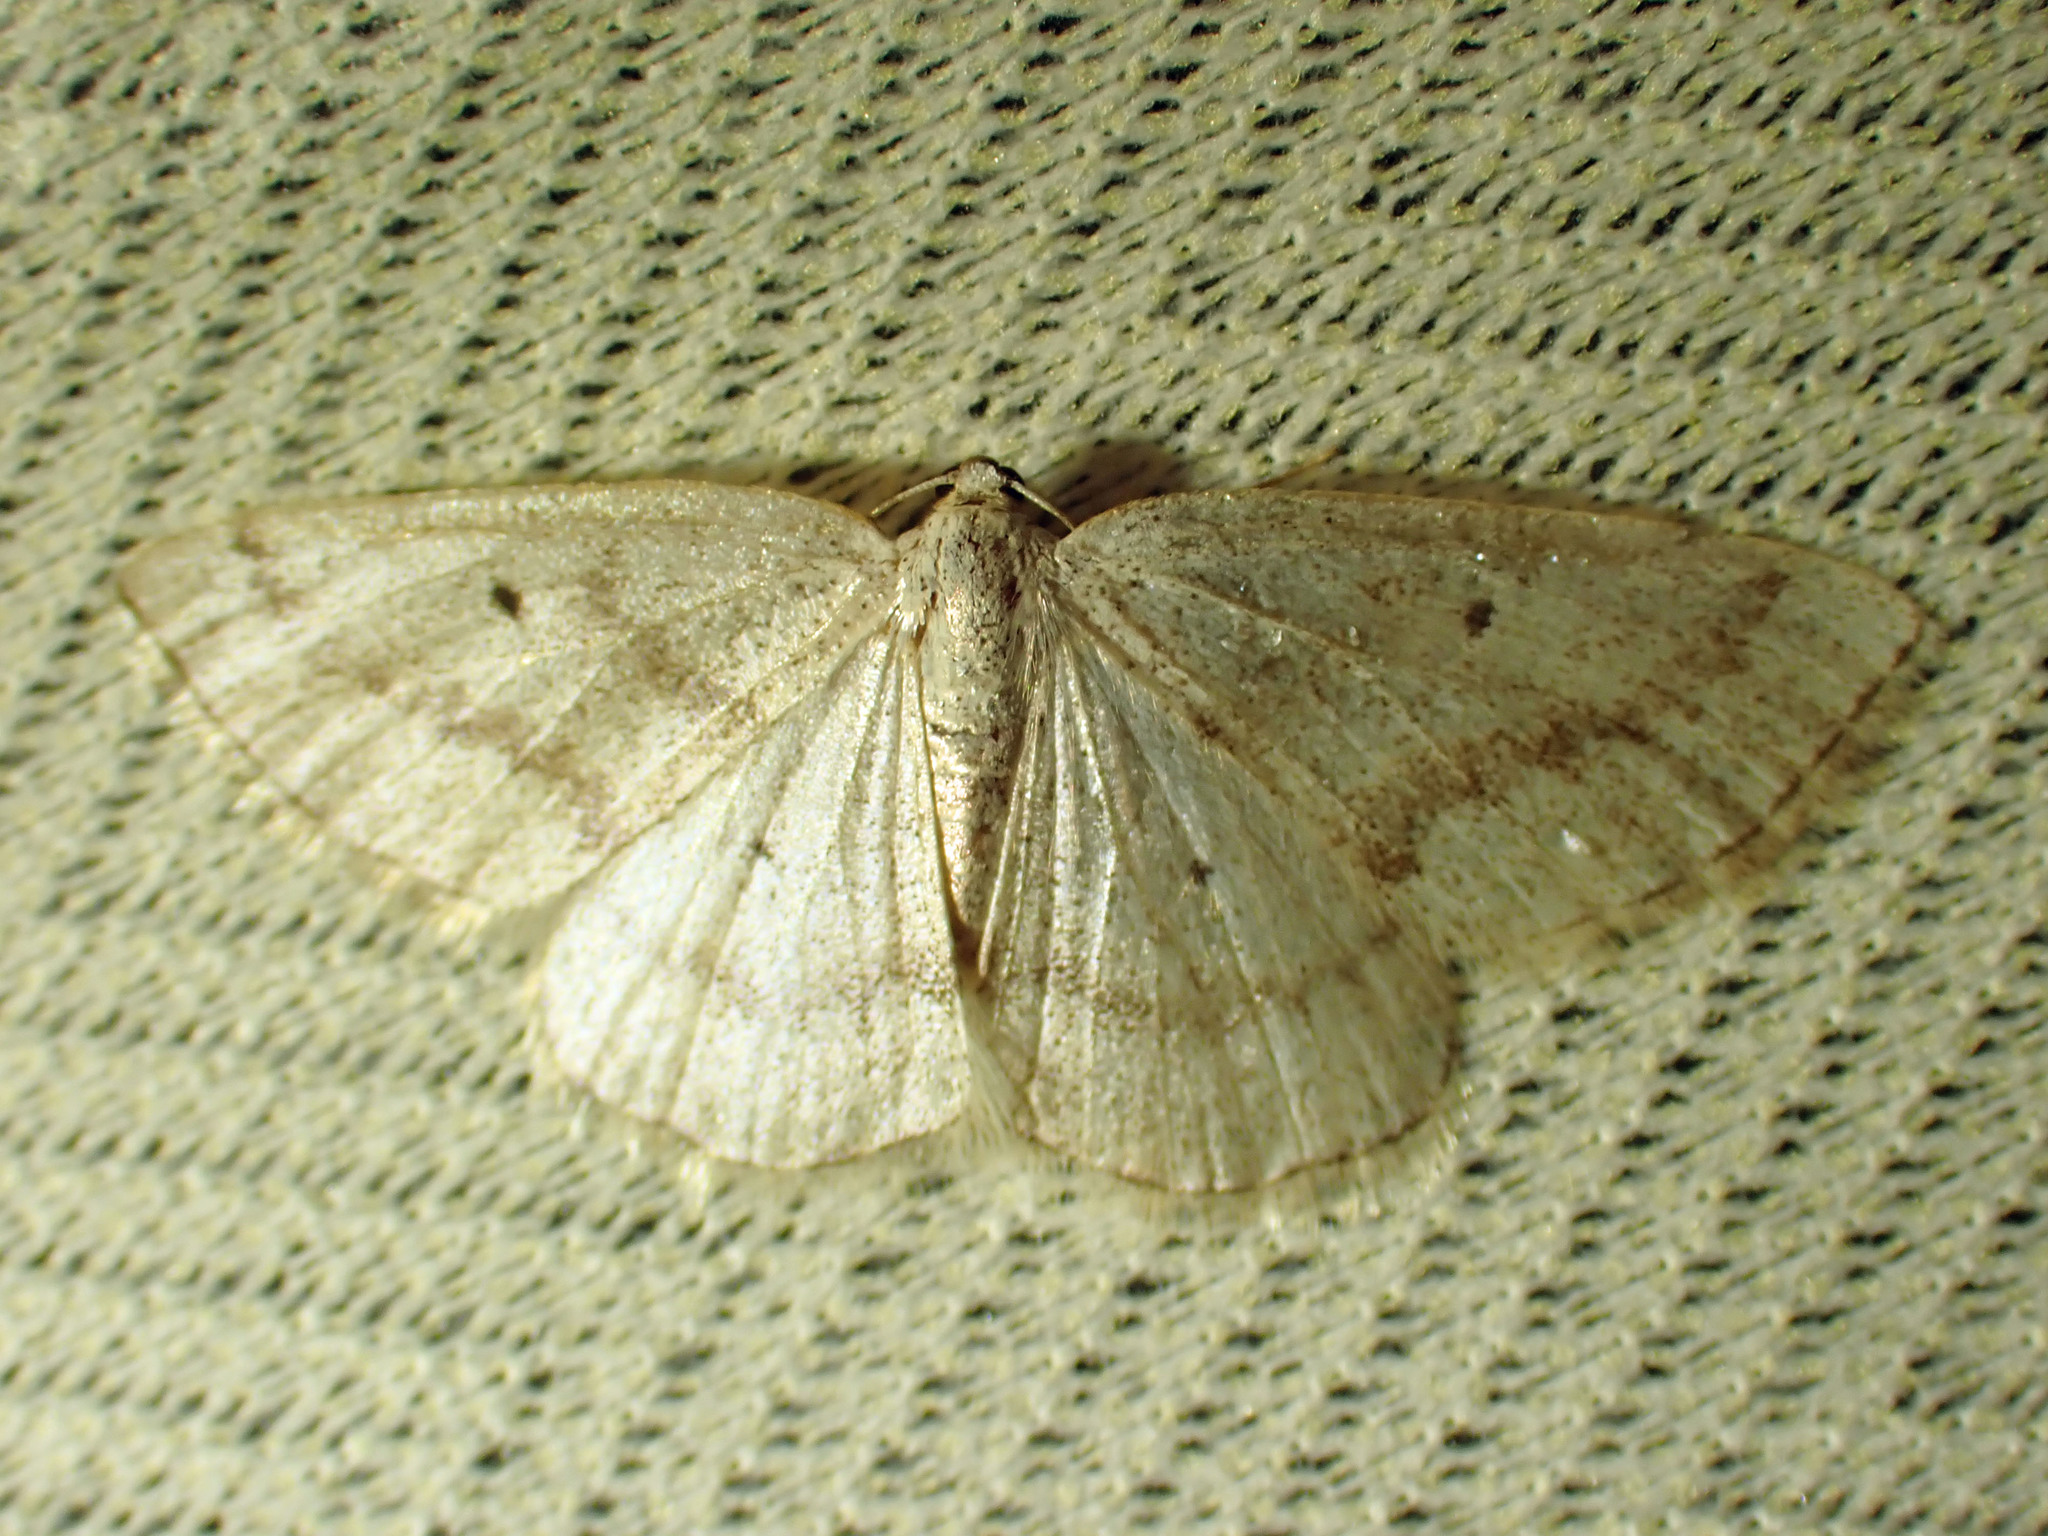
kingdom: Animalia
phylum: Arthropoda
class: Insecta
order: Lepidoptera
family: Geometridae
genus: Lomographa
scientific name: Lomographa glomeraria
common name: Gray spring moth
